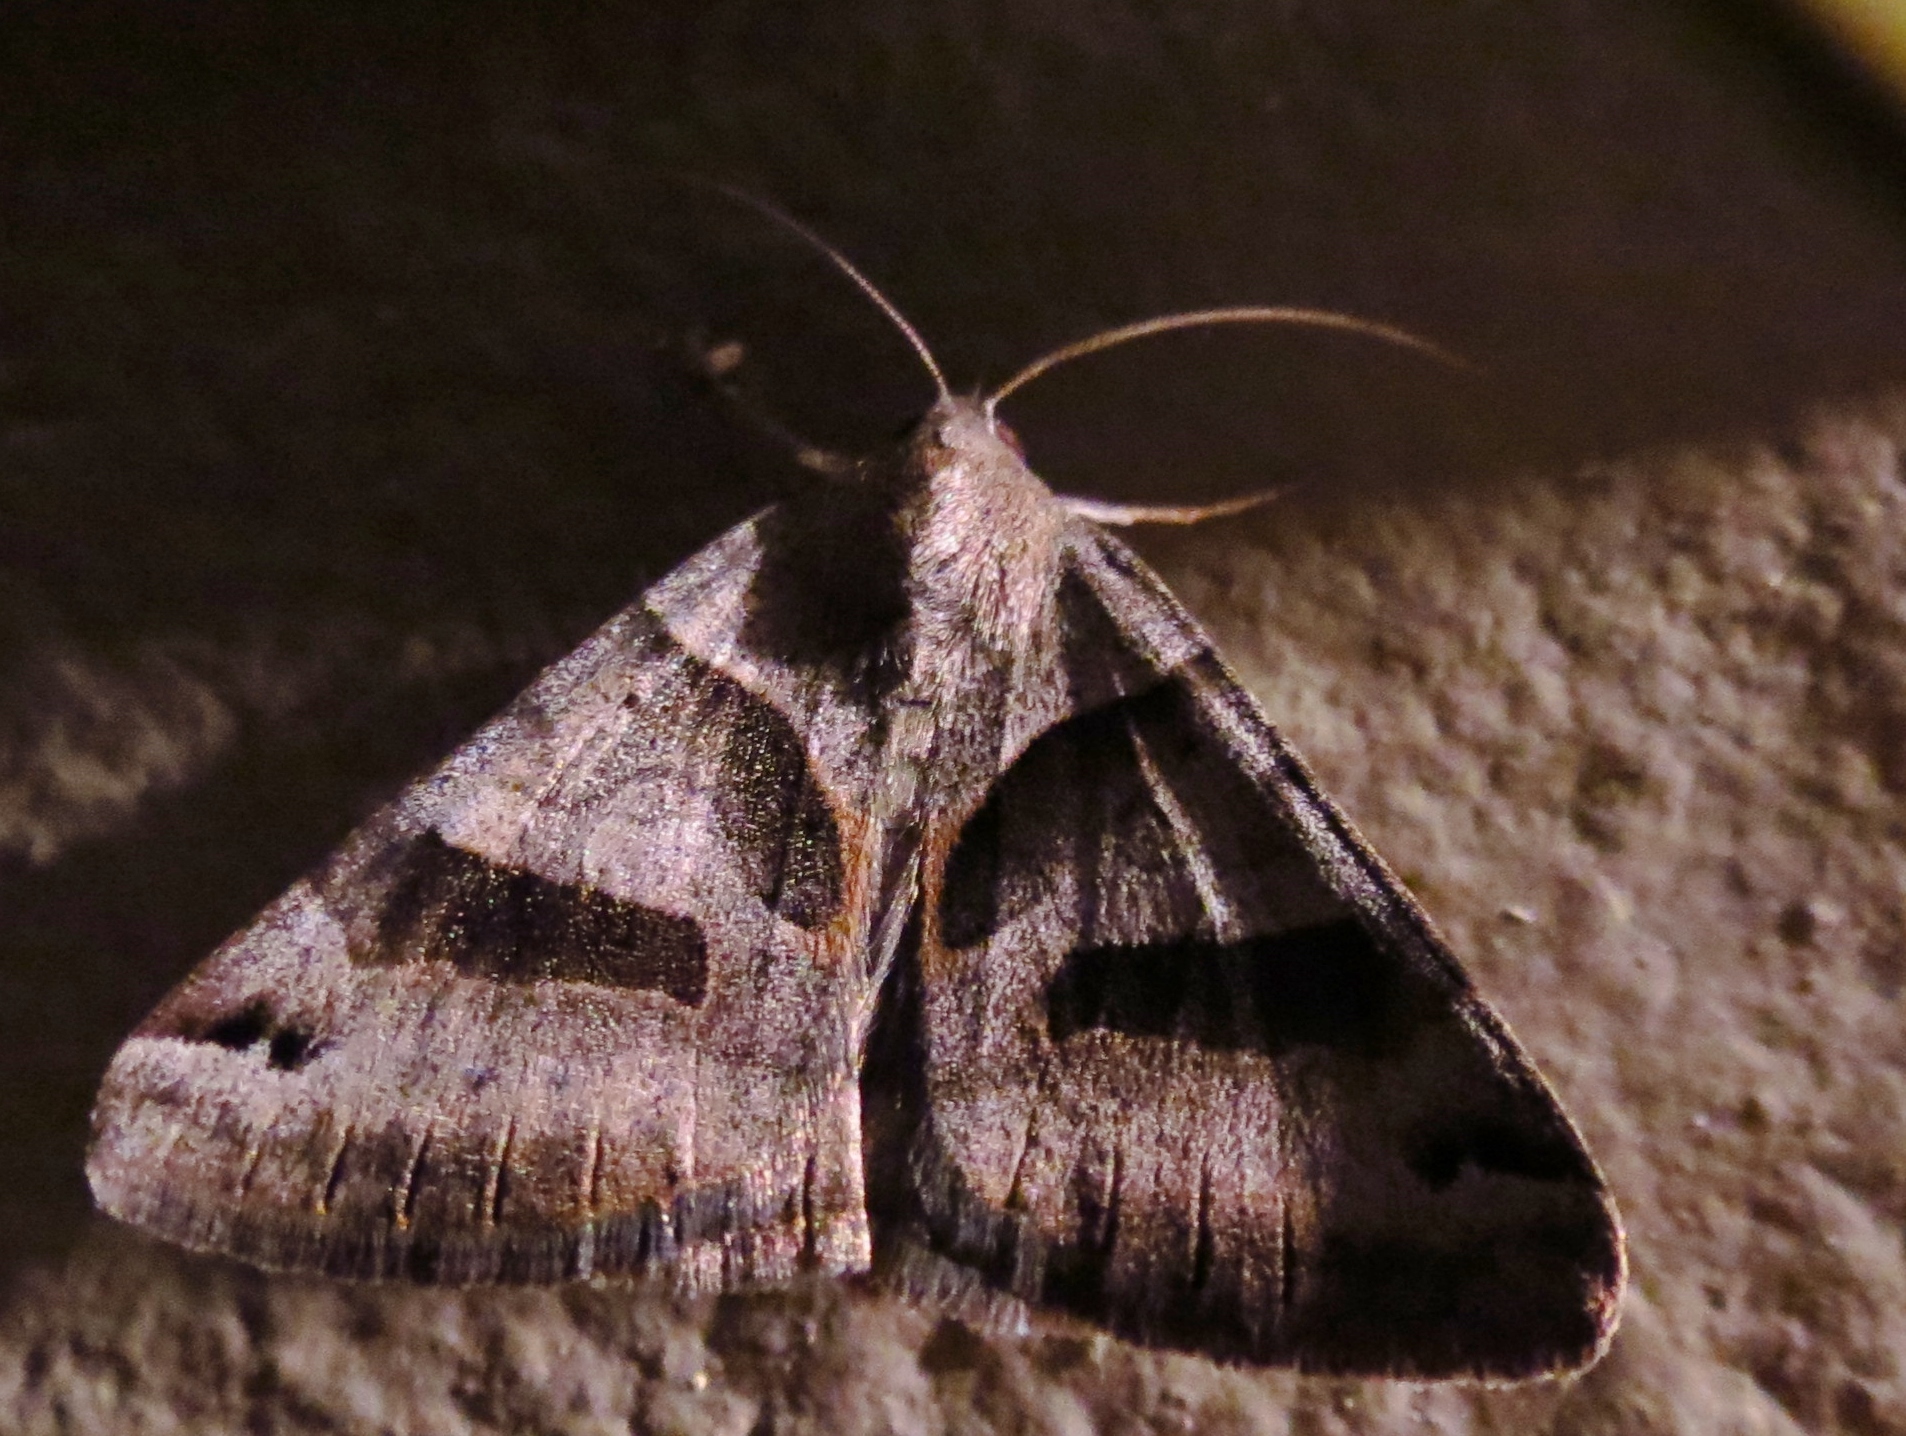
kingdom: Animalia
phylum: Arthropoda
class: Insecta
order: Lepidoptera
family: Erebidae
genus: Caenurgina
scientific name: Caenurgina erechtea
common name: Forage looper moth
